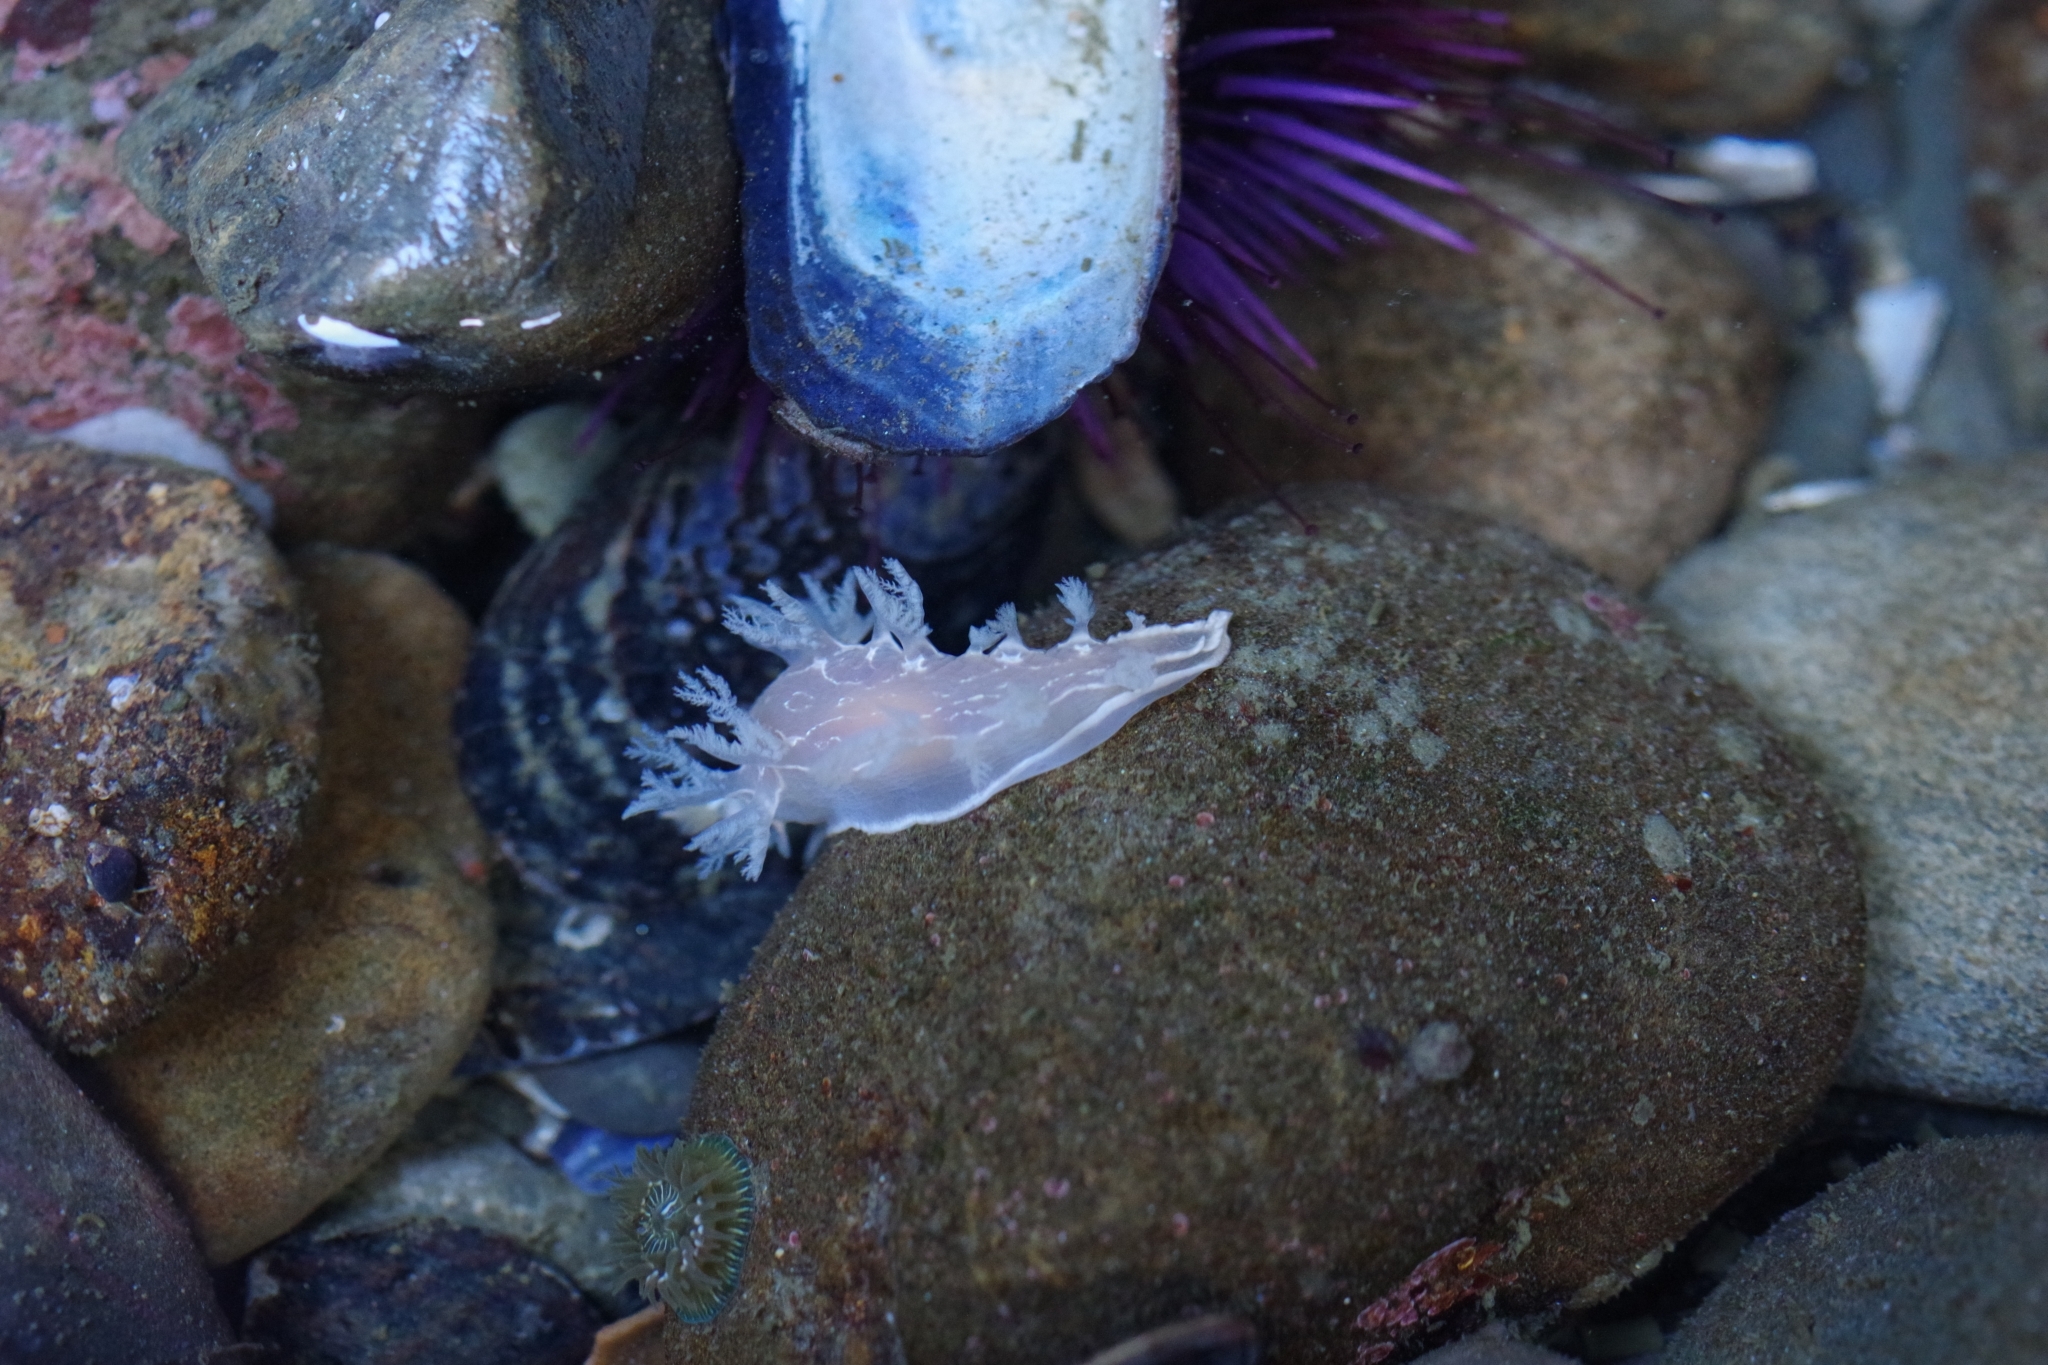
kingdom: Animalia
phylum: Mollusca
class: Gastropoda
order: Nudibranchia
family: Tritoniidae
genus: Tritonia
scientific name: Tritonia festiva
